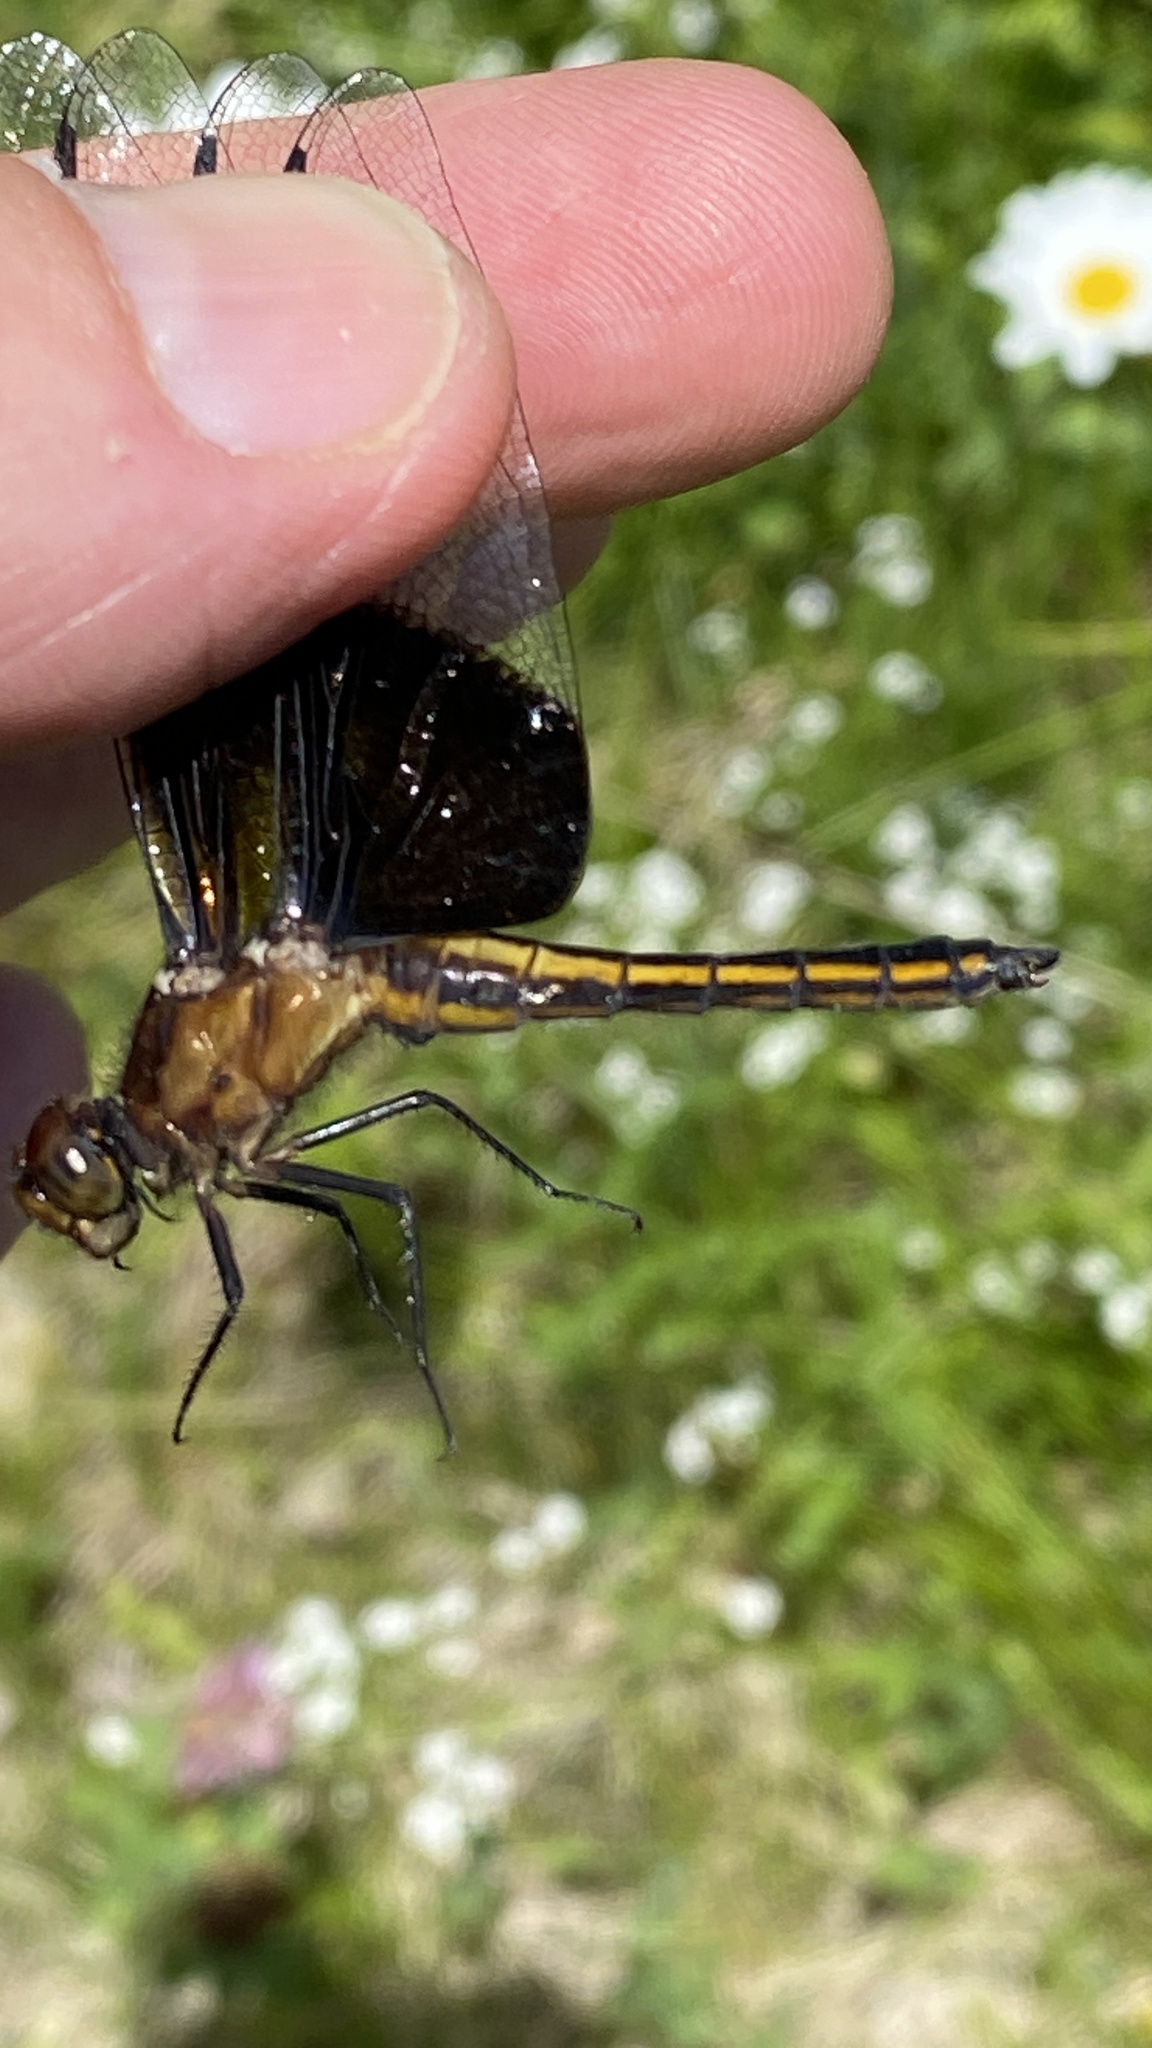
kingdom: Animalia
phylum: Arthropoda
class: Insecta
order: Odonata
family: Libellulidae
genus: Libellula
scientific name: Libellula luctuosa
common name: Widow skimmer
